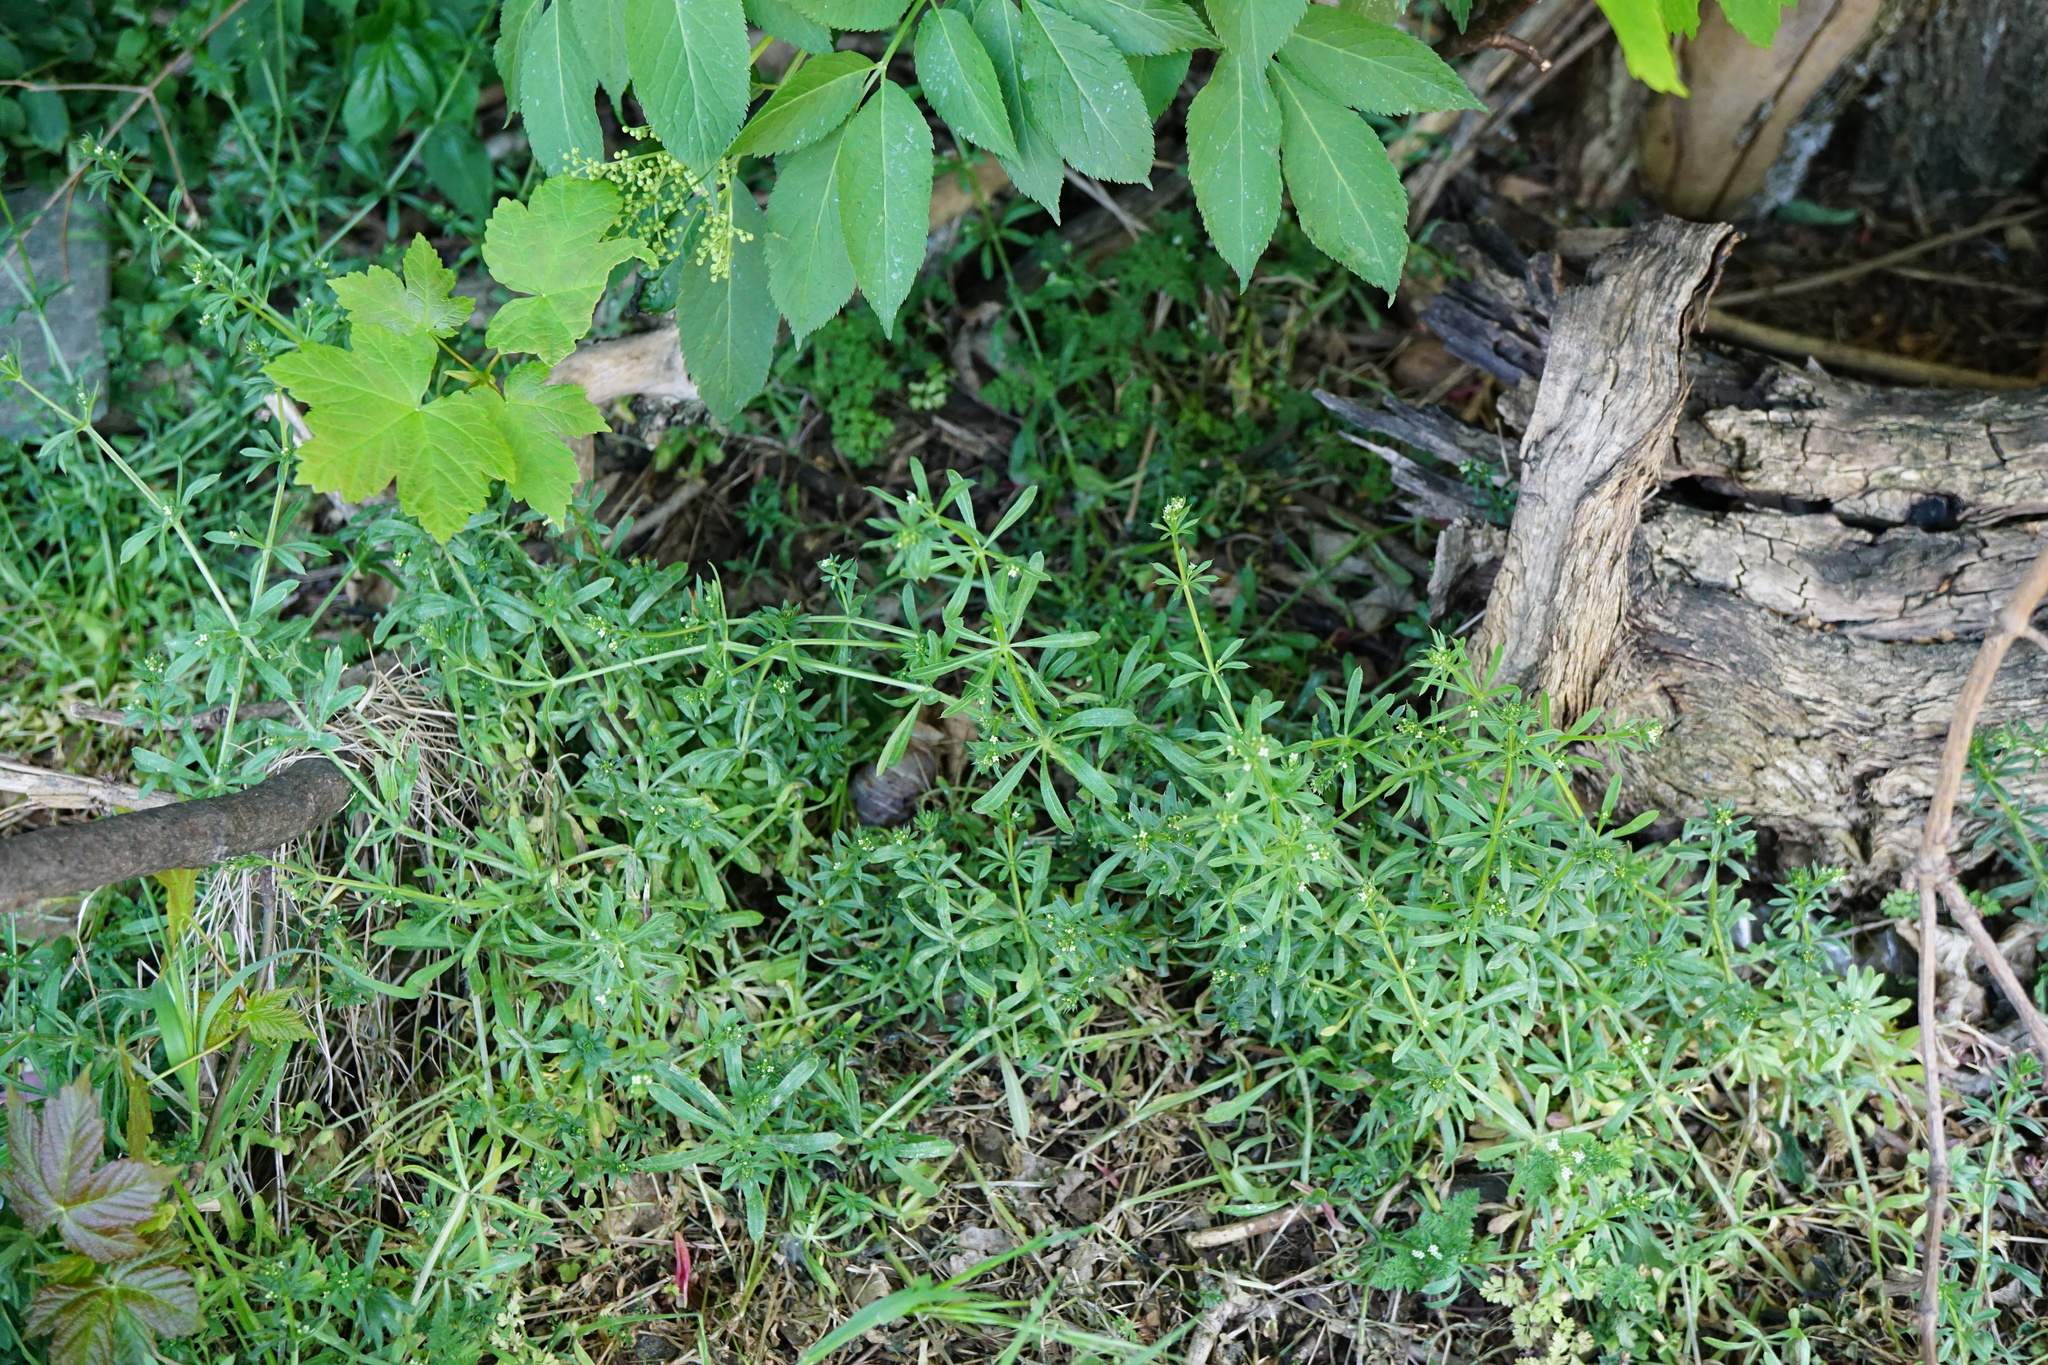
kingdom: Plantae
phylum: Tracheophyta
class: Magnoliopsida
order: Gentianales
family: Rubiaceae
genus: Galium
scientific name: Galium aparine
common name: Cleavers
